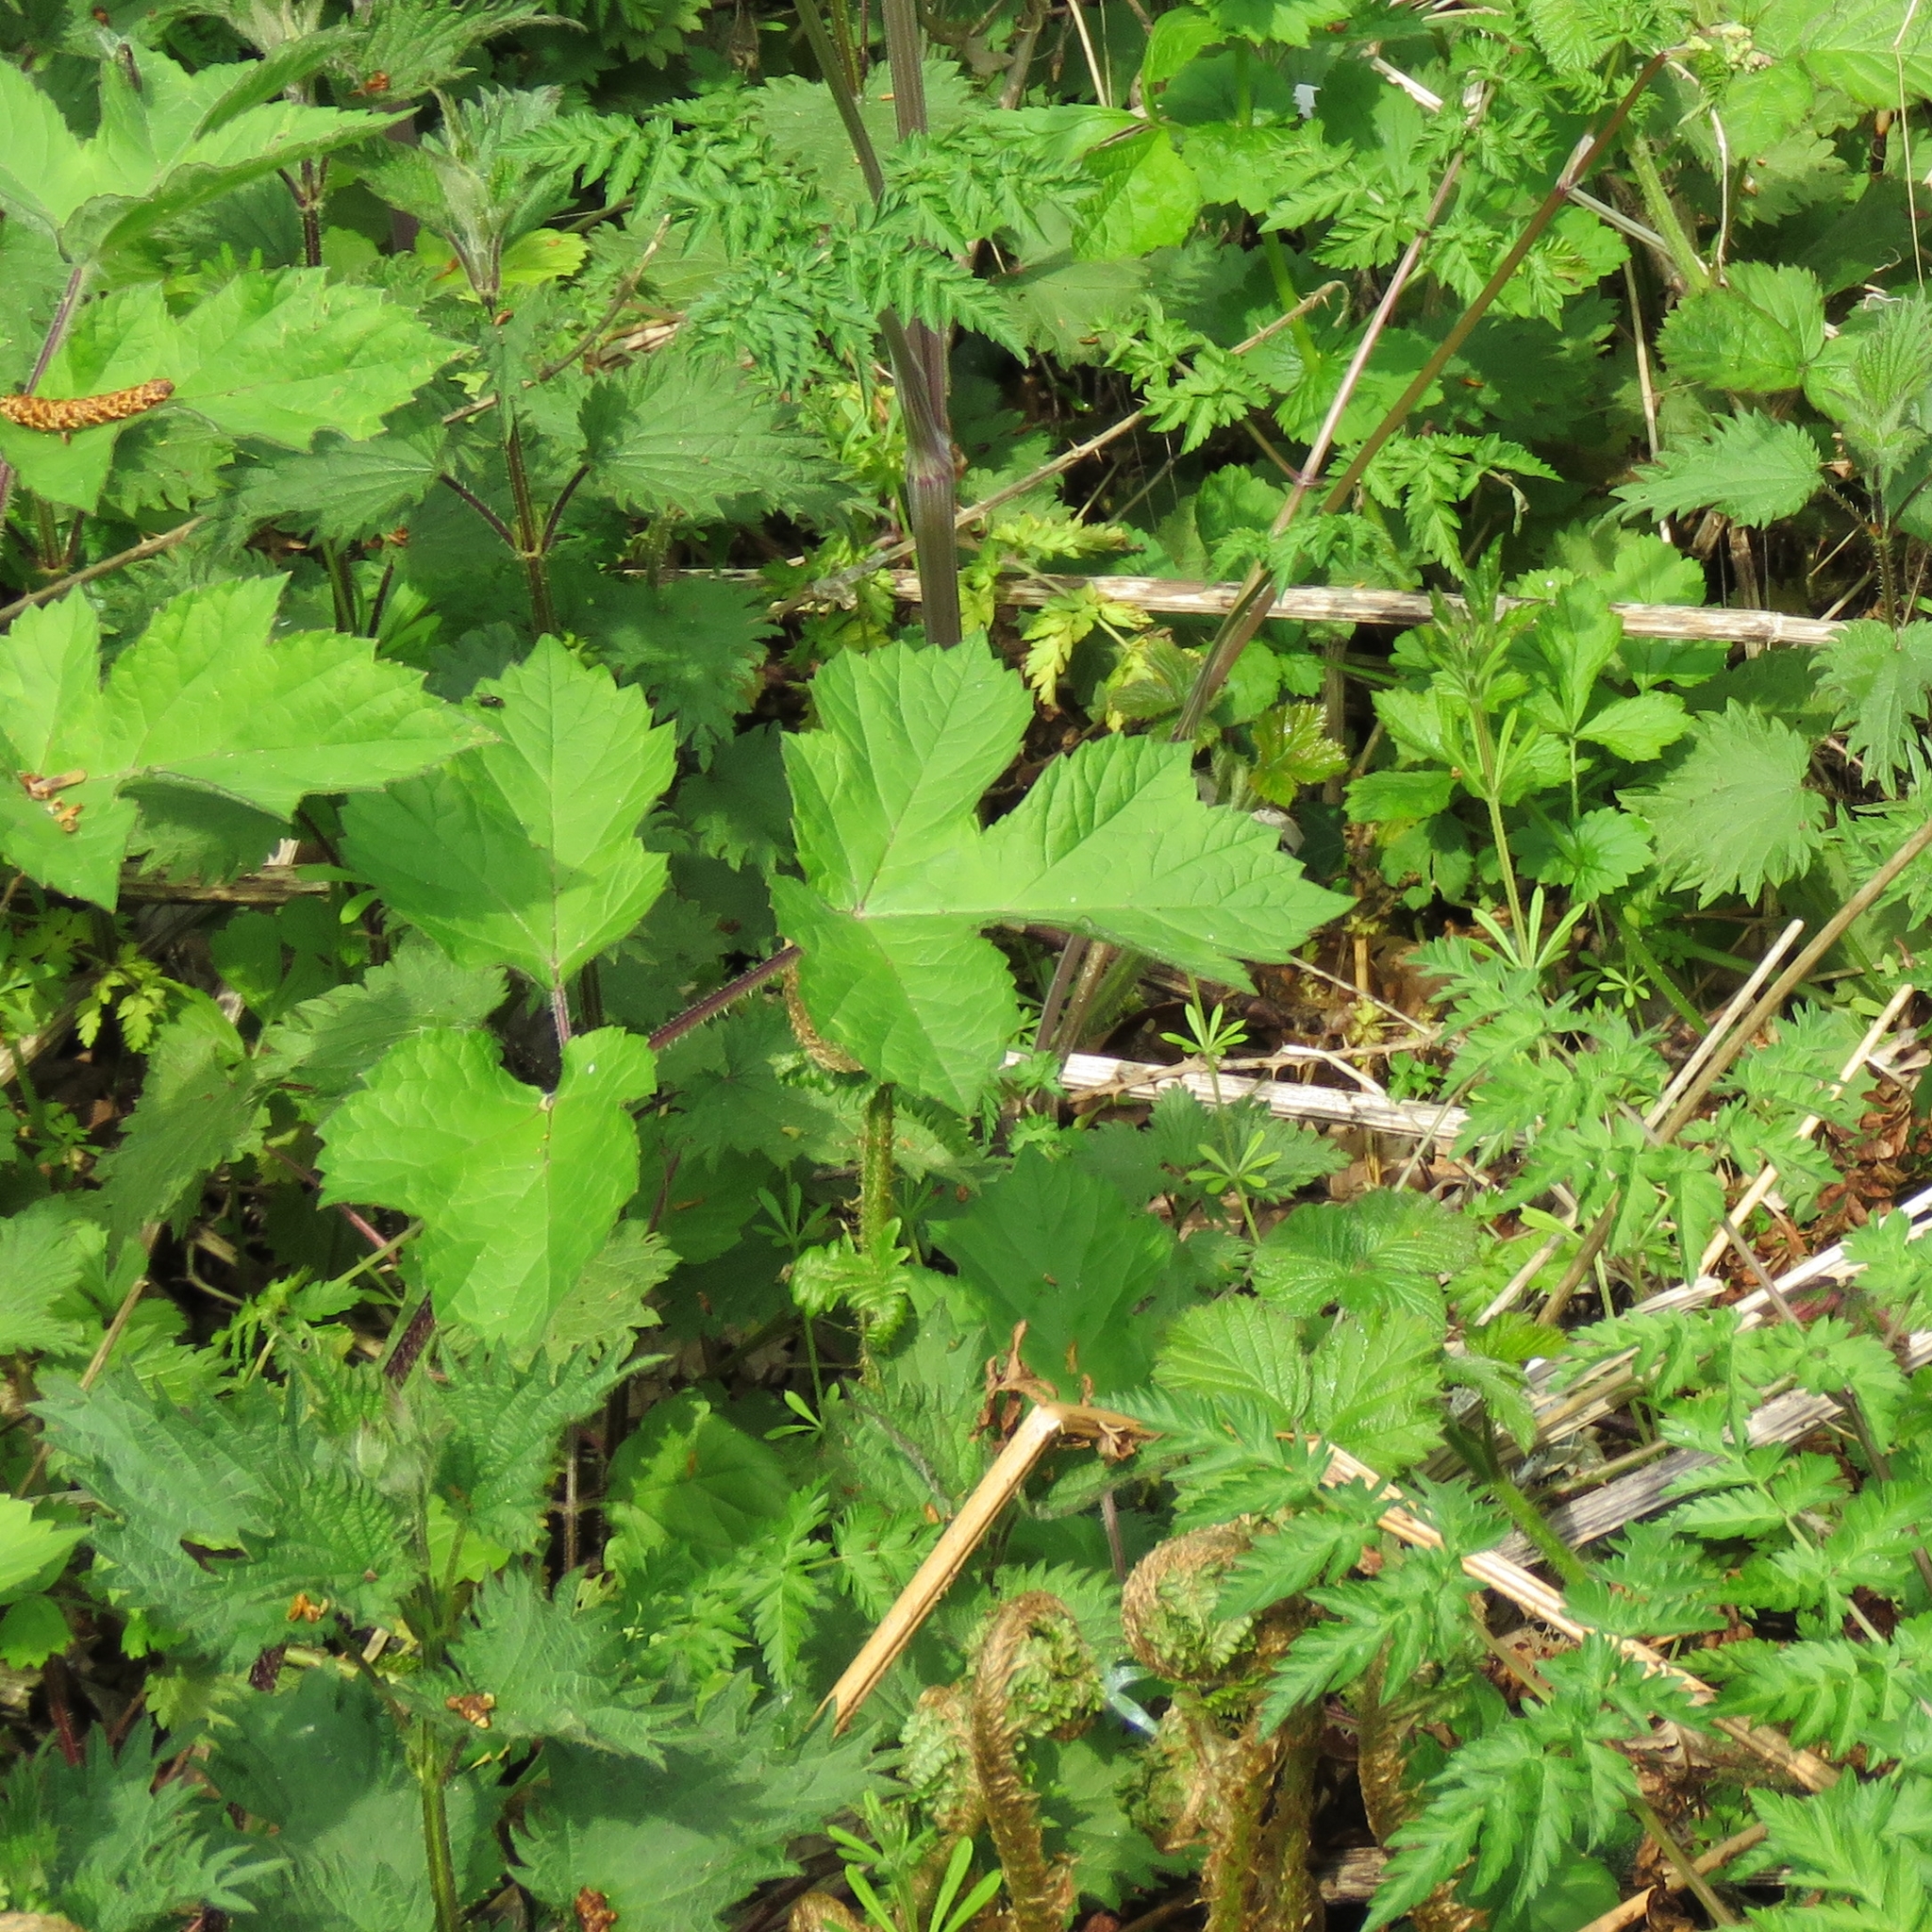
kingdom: Plantae
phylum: Tracheophyta
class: Magnoliopsida
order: Apiales
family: Apiaceae
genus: Heracleum
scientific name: Heracleum sphondylium
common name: Hogweed
